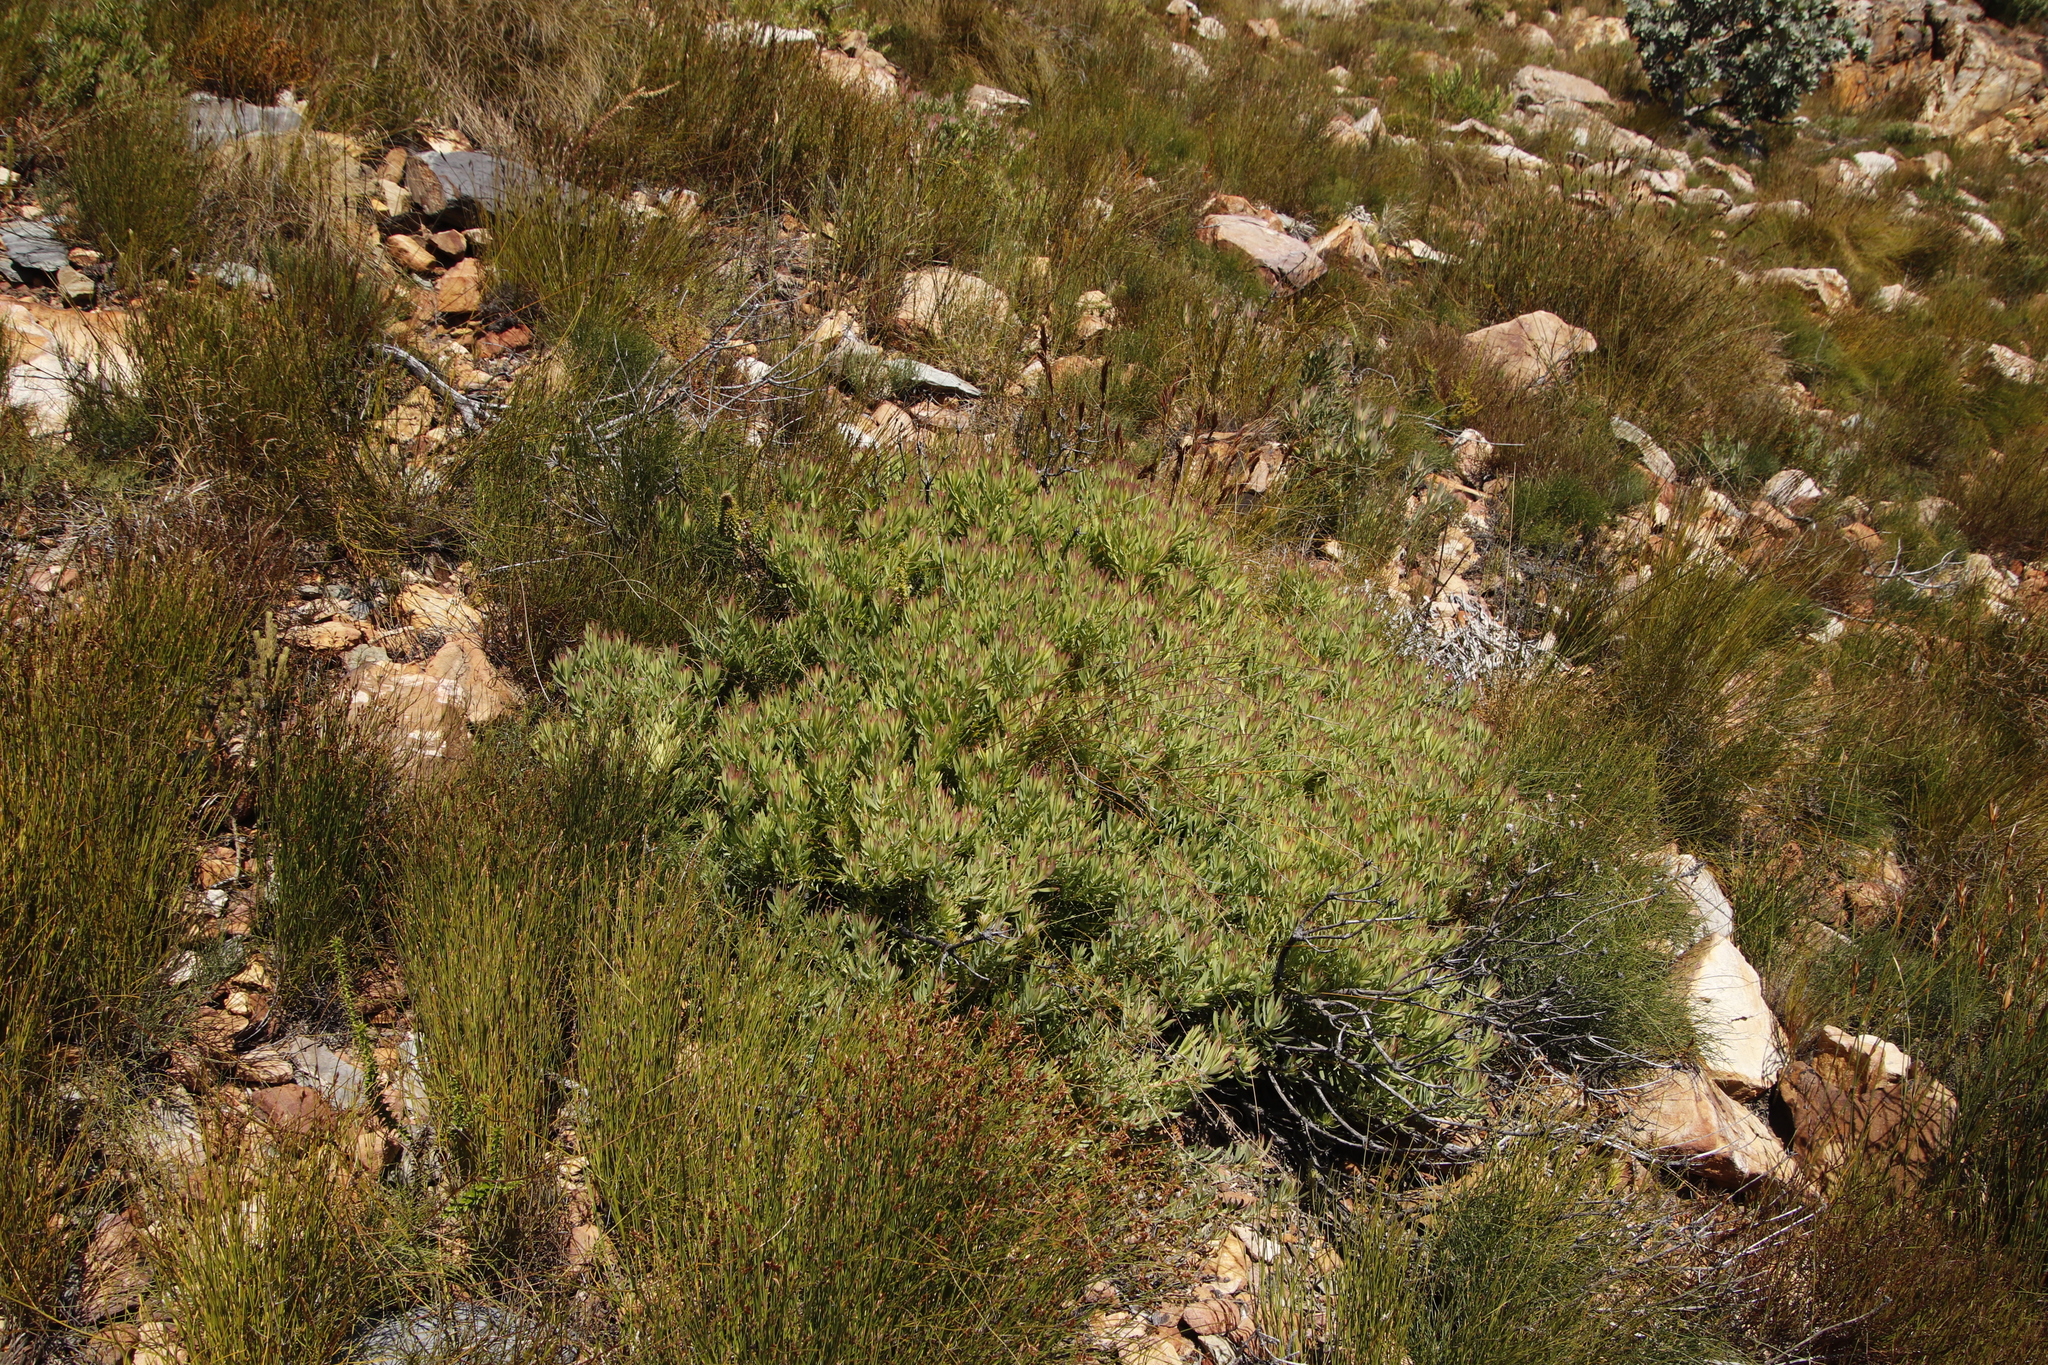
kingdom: Plantae
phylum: Tracheophyta
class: Magnoliopsida
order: Proteales
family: Proteaceae
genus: Leucadendron
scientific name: Leucadendron salignum
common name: Common sunshine conebush
